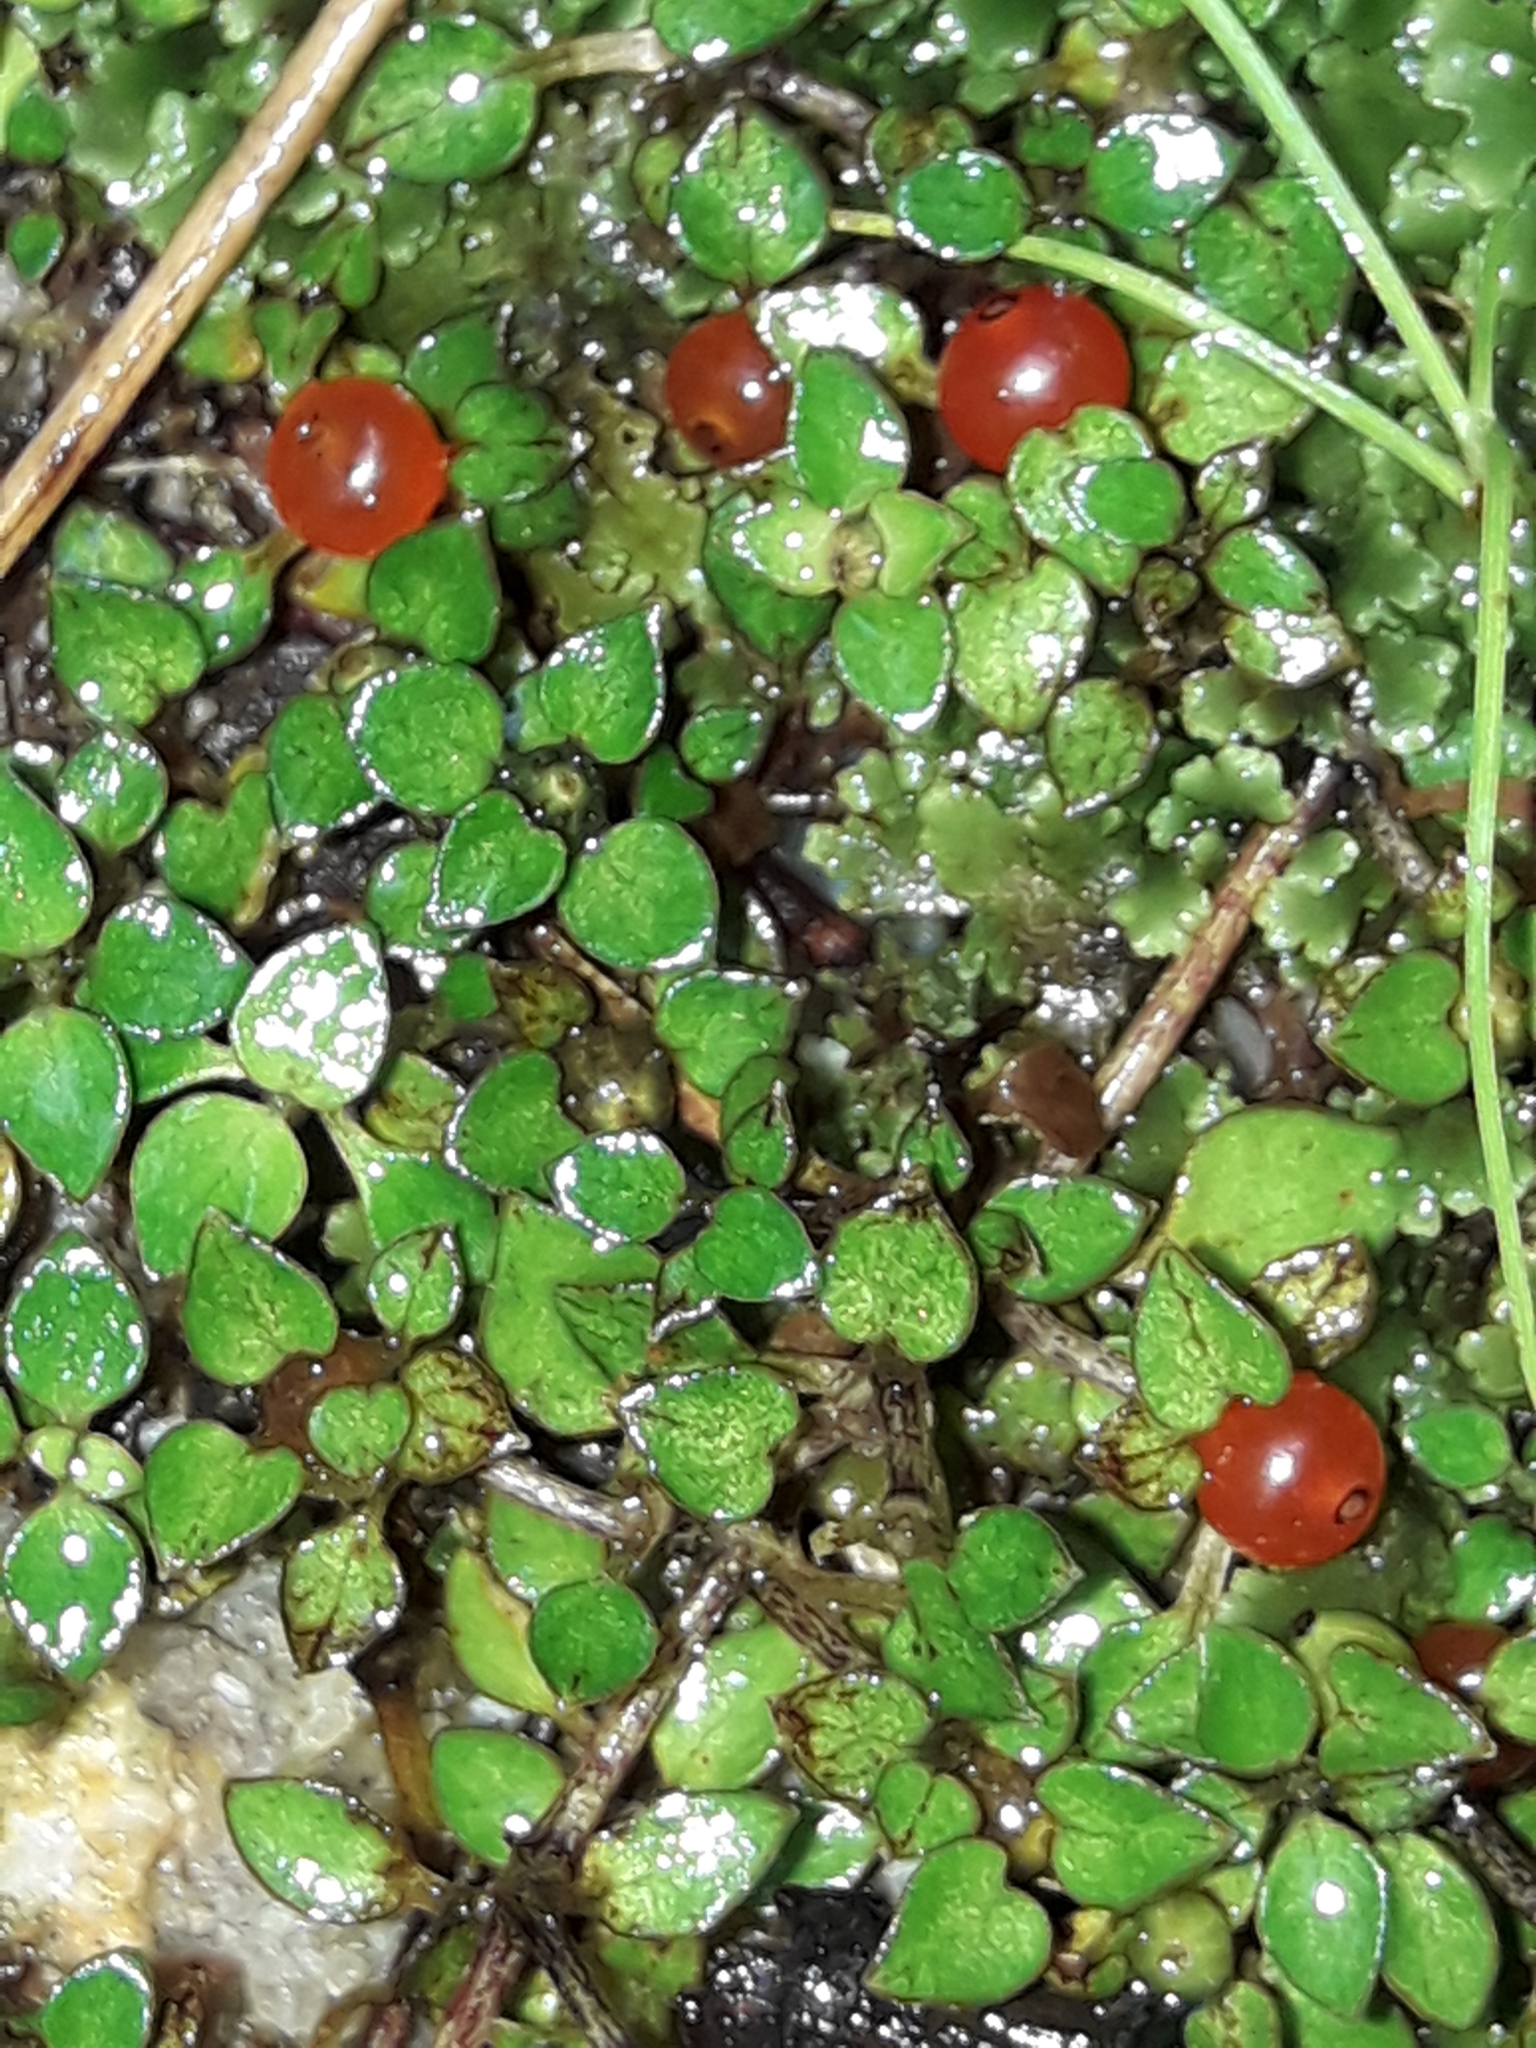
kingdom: Plantae
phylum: Tracheophyta
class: Magnoliopsida
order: Gentianales
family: Rubiaceae
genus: Nertera
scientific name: Nertera granadensis
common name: Beadplant
